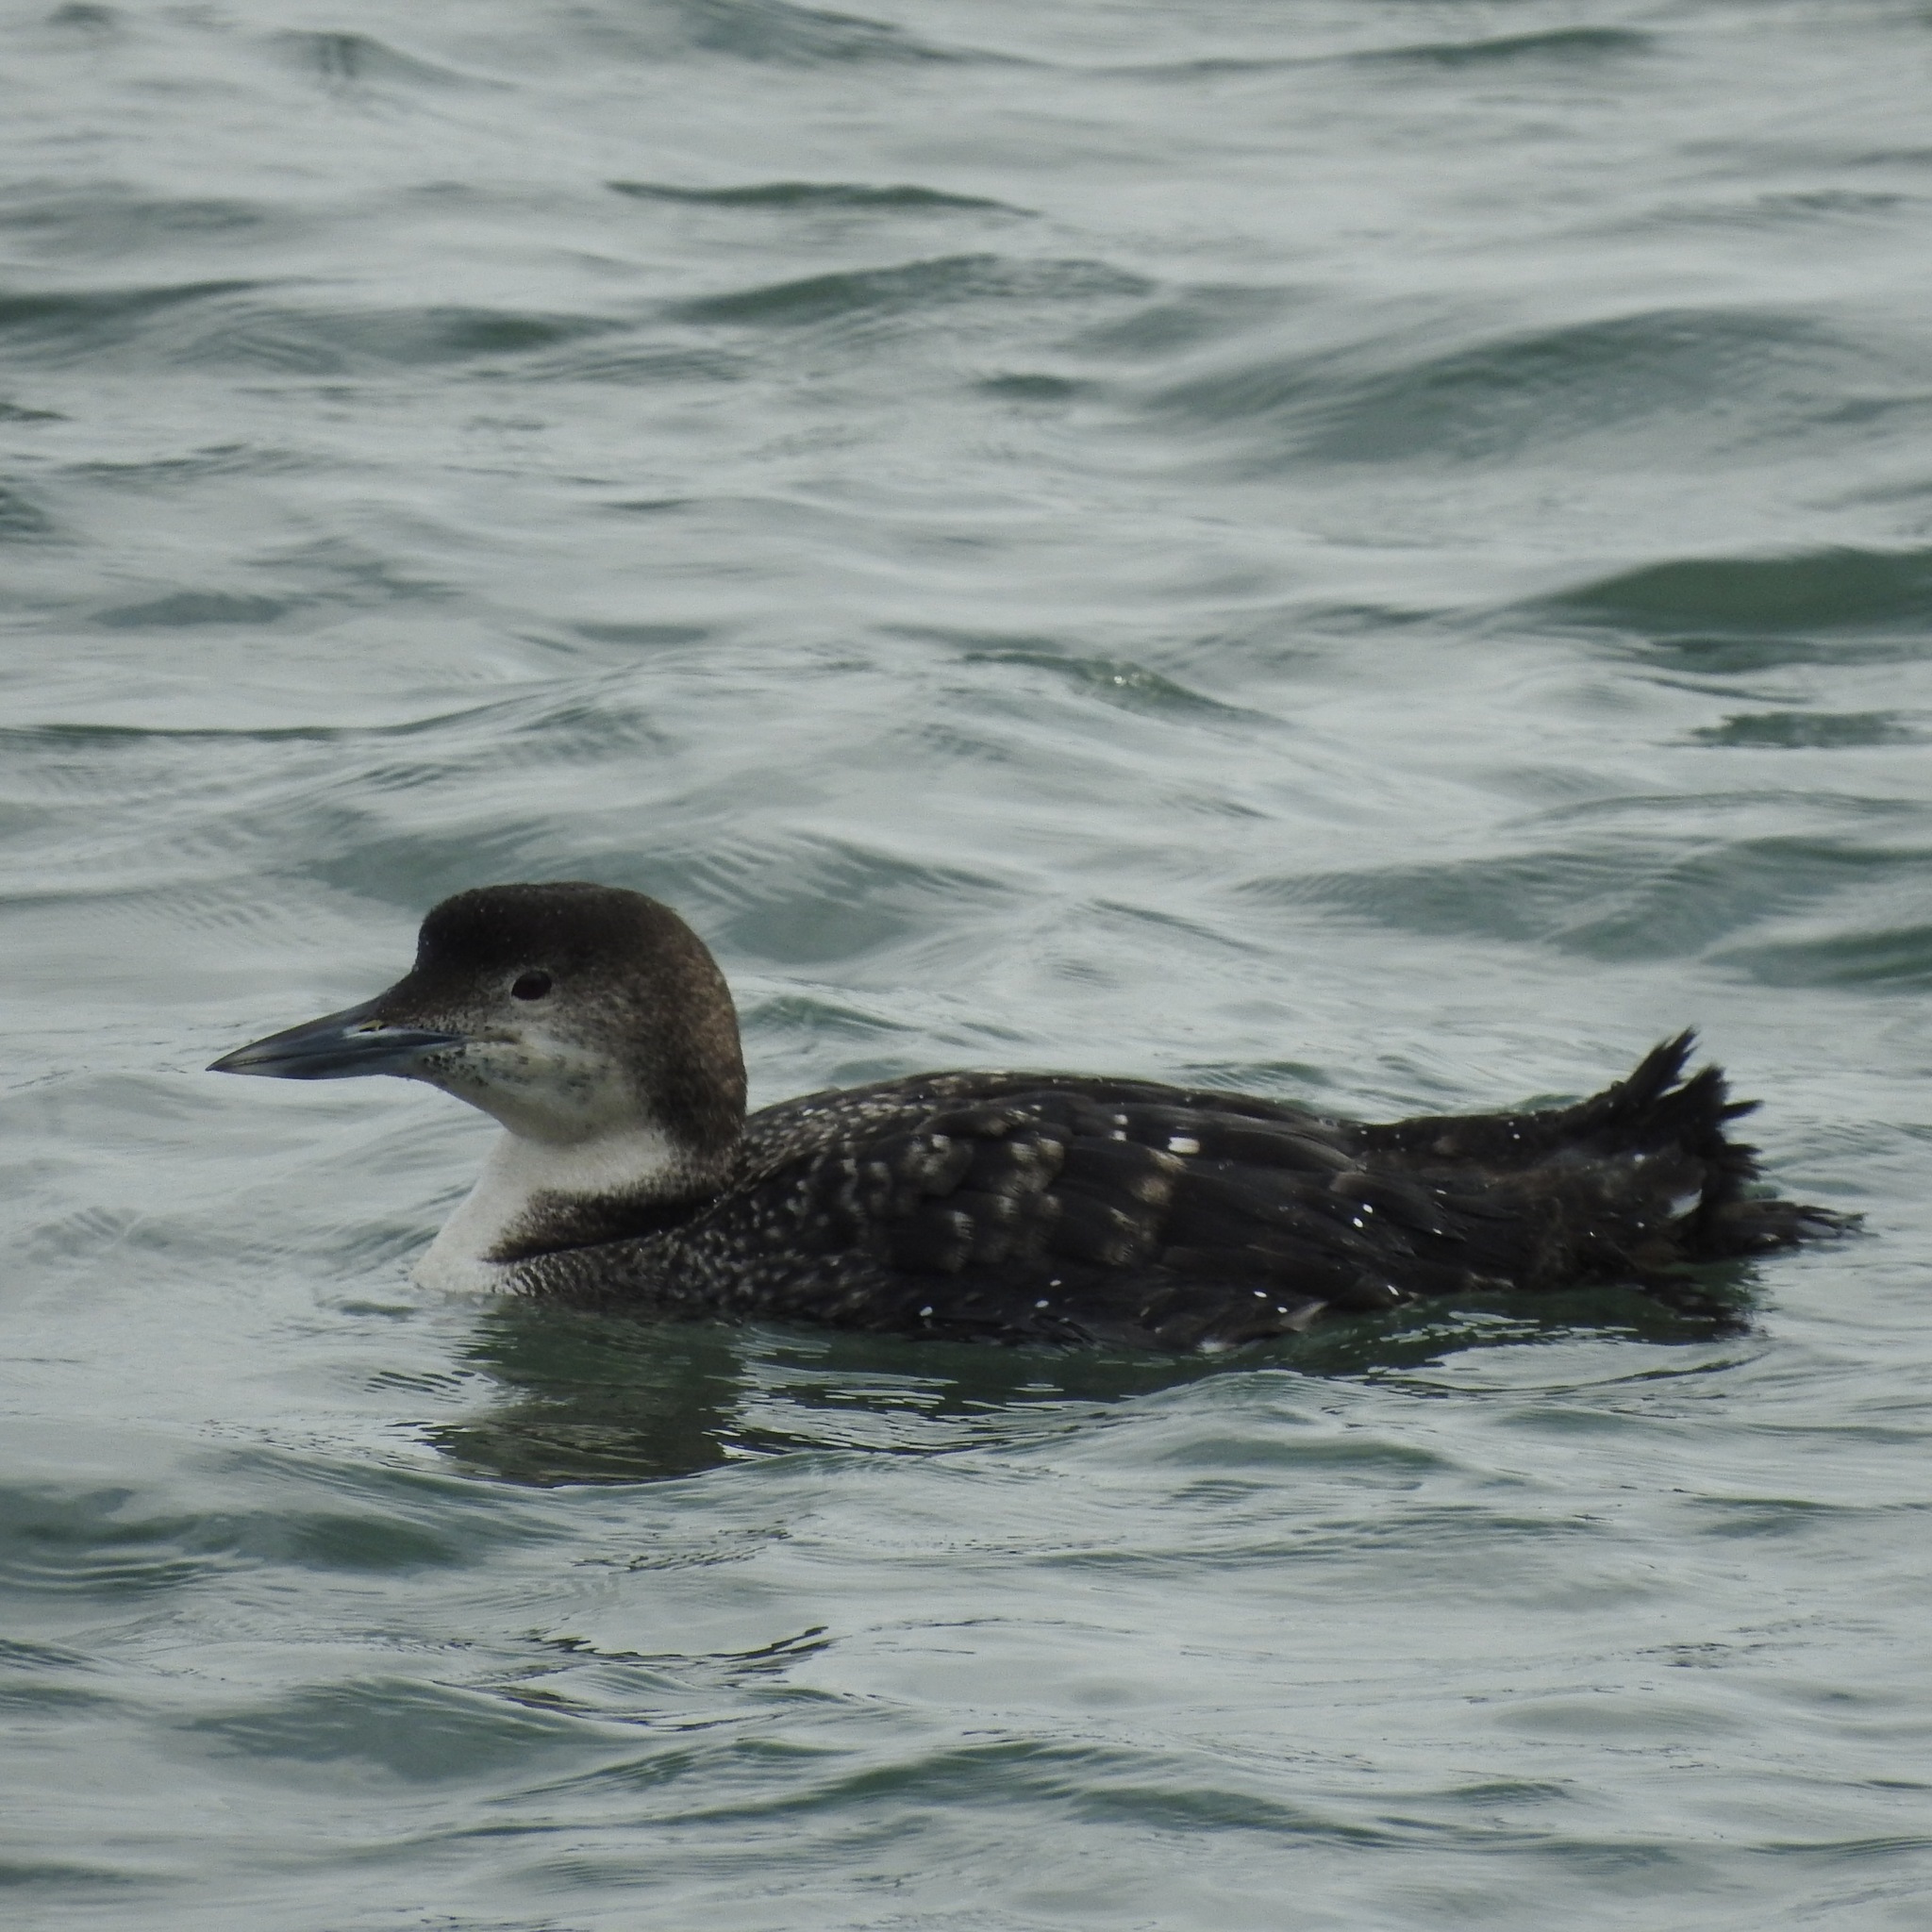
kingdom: Animalia
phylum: Chordata
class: Aves
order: Gaviiformes
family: Gaviidae
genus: Gavia
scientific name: Gavia immer
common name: Common loon
